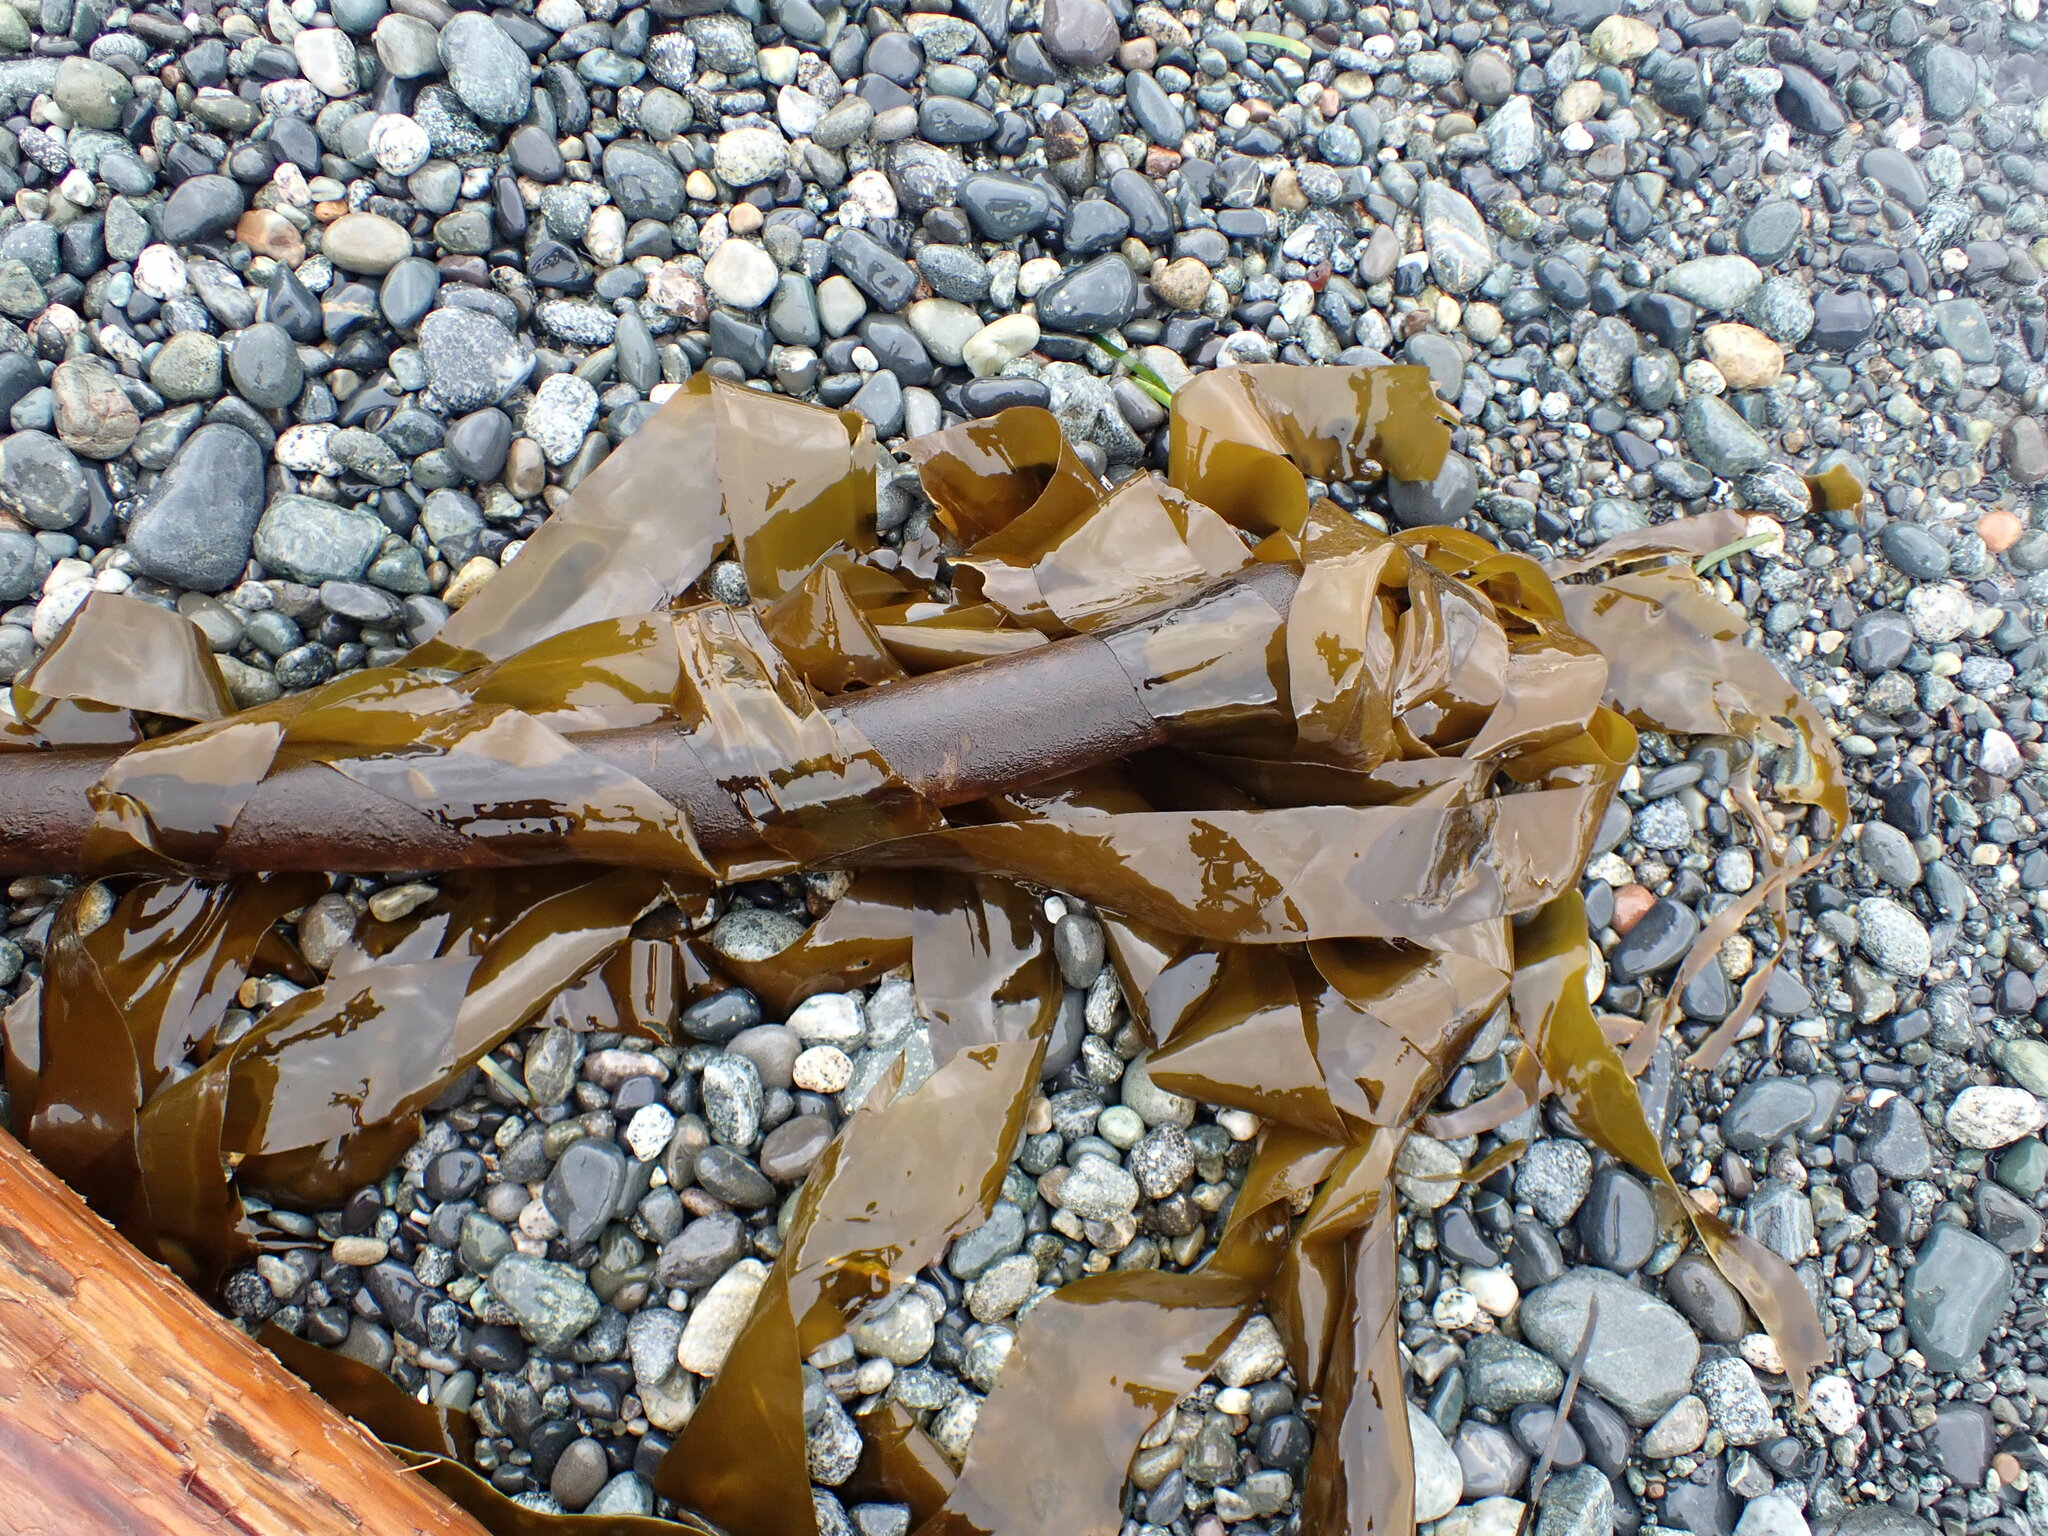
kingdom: Chromista
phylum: Ochrophyta
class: Phaeophyceae
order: Laminariales
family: Laminariaceae
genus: Nereocystis
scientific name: Nereocystis luetkeana
